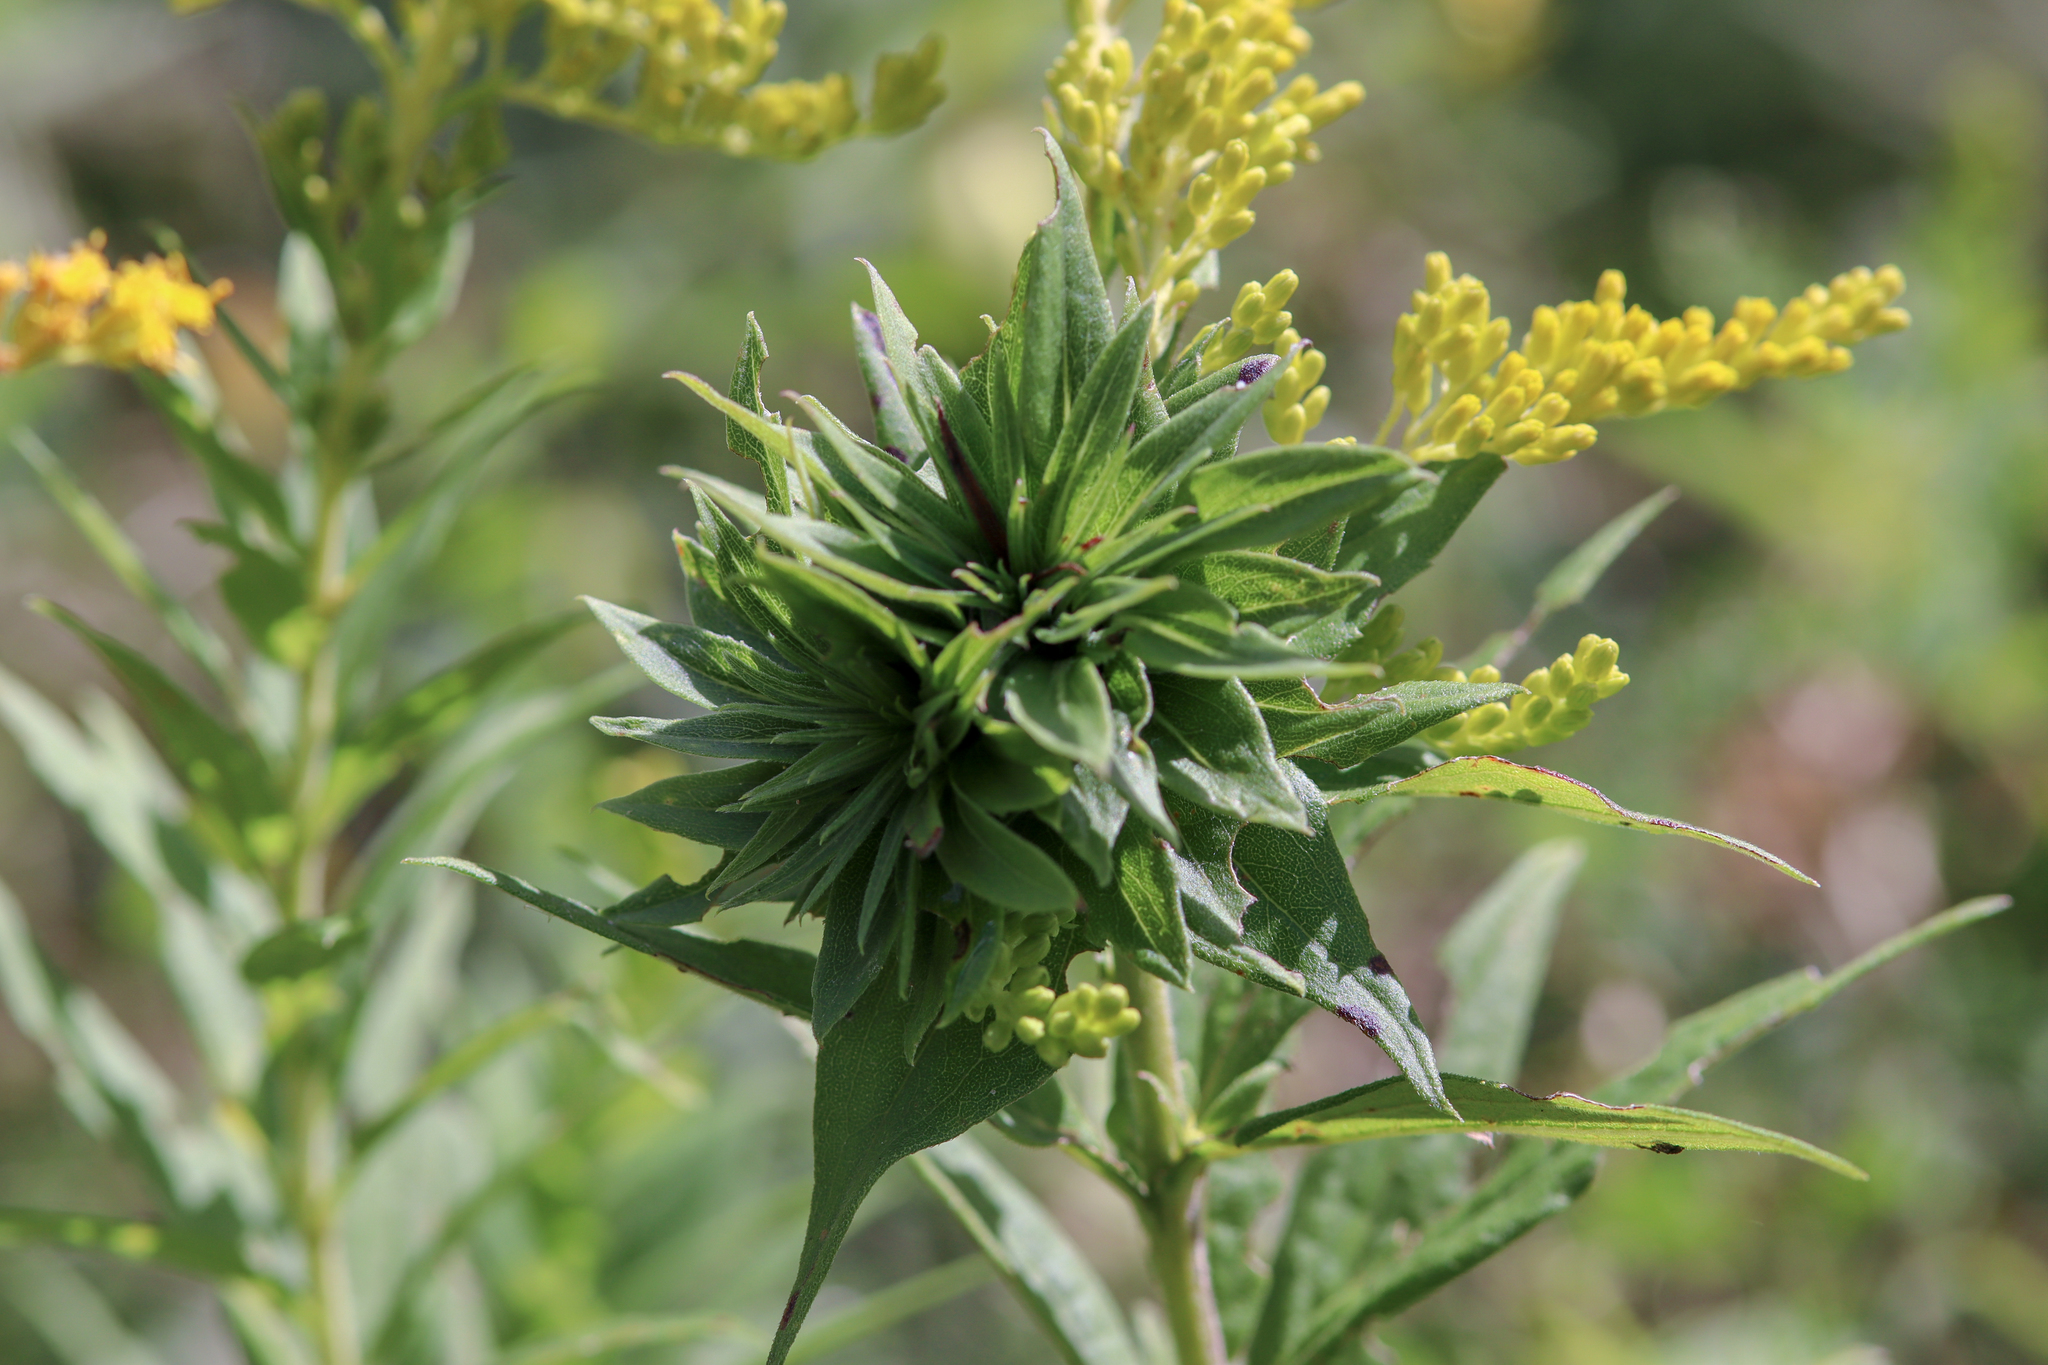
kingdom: Animalia
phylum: Arthropoda
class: Insecta
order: Diptera
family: Cecidomyiidae
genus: Rhopalomyia
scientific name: Rhopalomyia solidaginis
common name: Goldenrod bunch gall midge
